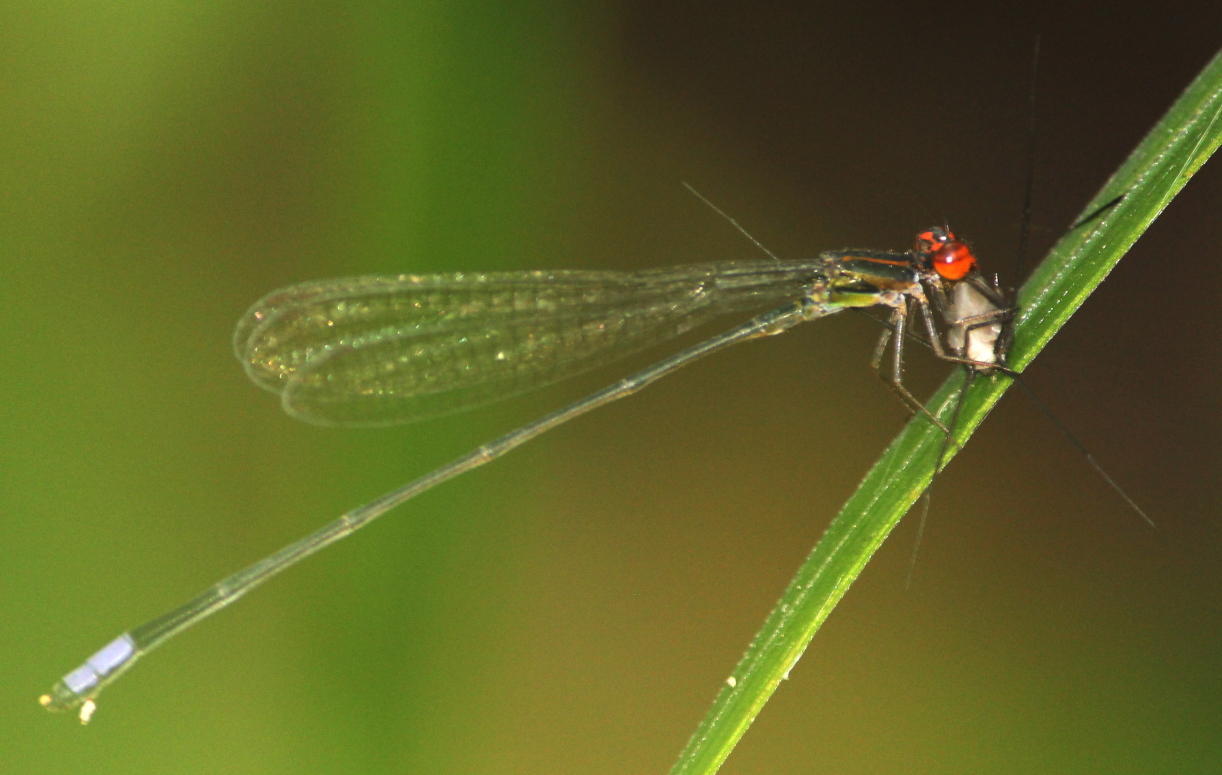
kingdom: Animalia
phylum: Arthropoda
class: Insecta
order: Odonata
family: Coenagrionidae
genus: Pseudagrion
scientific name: Pseudagrion hageni
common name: Painted sprite
